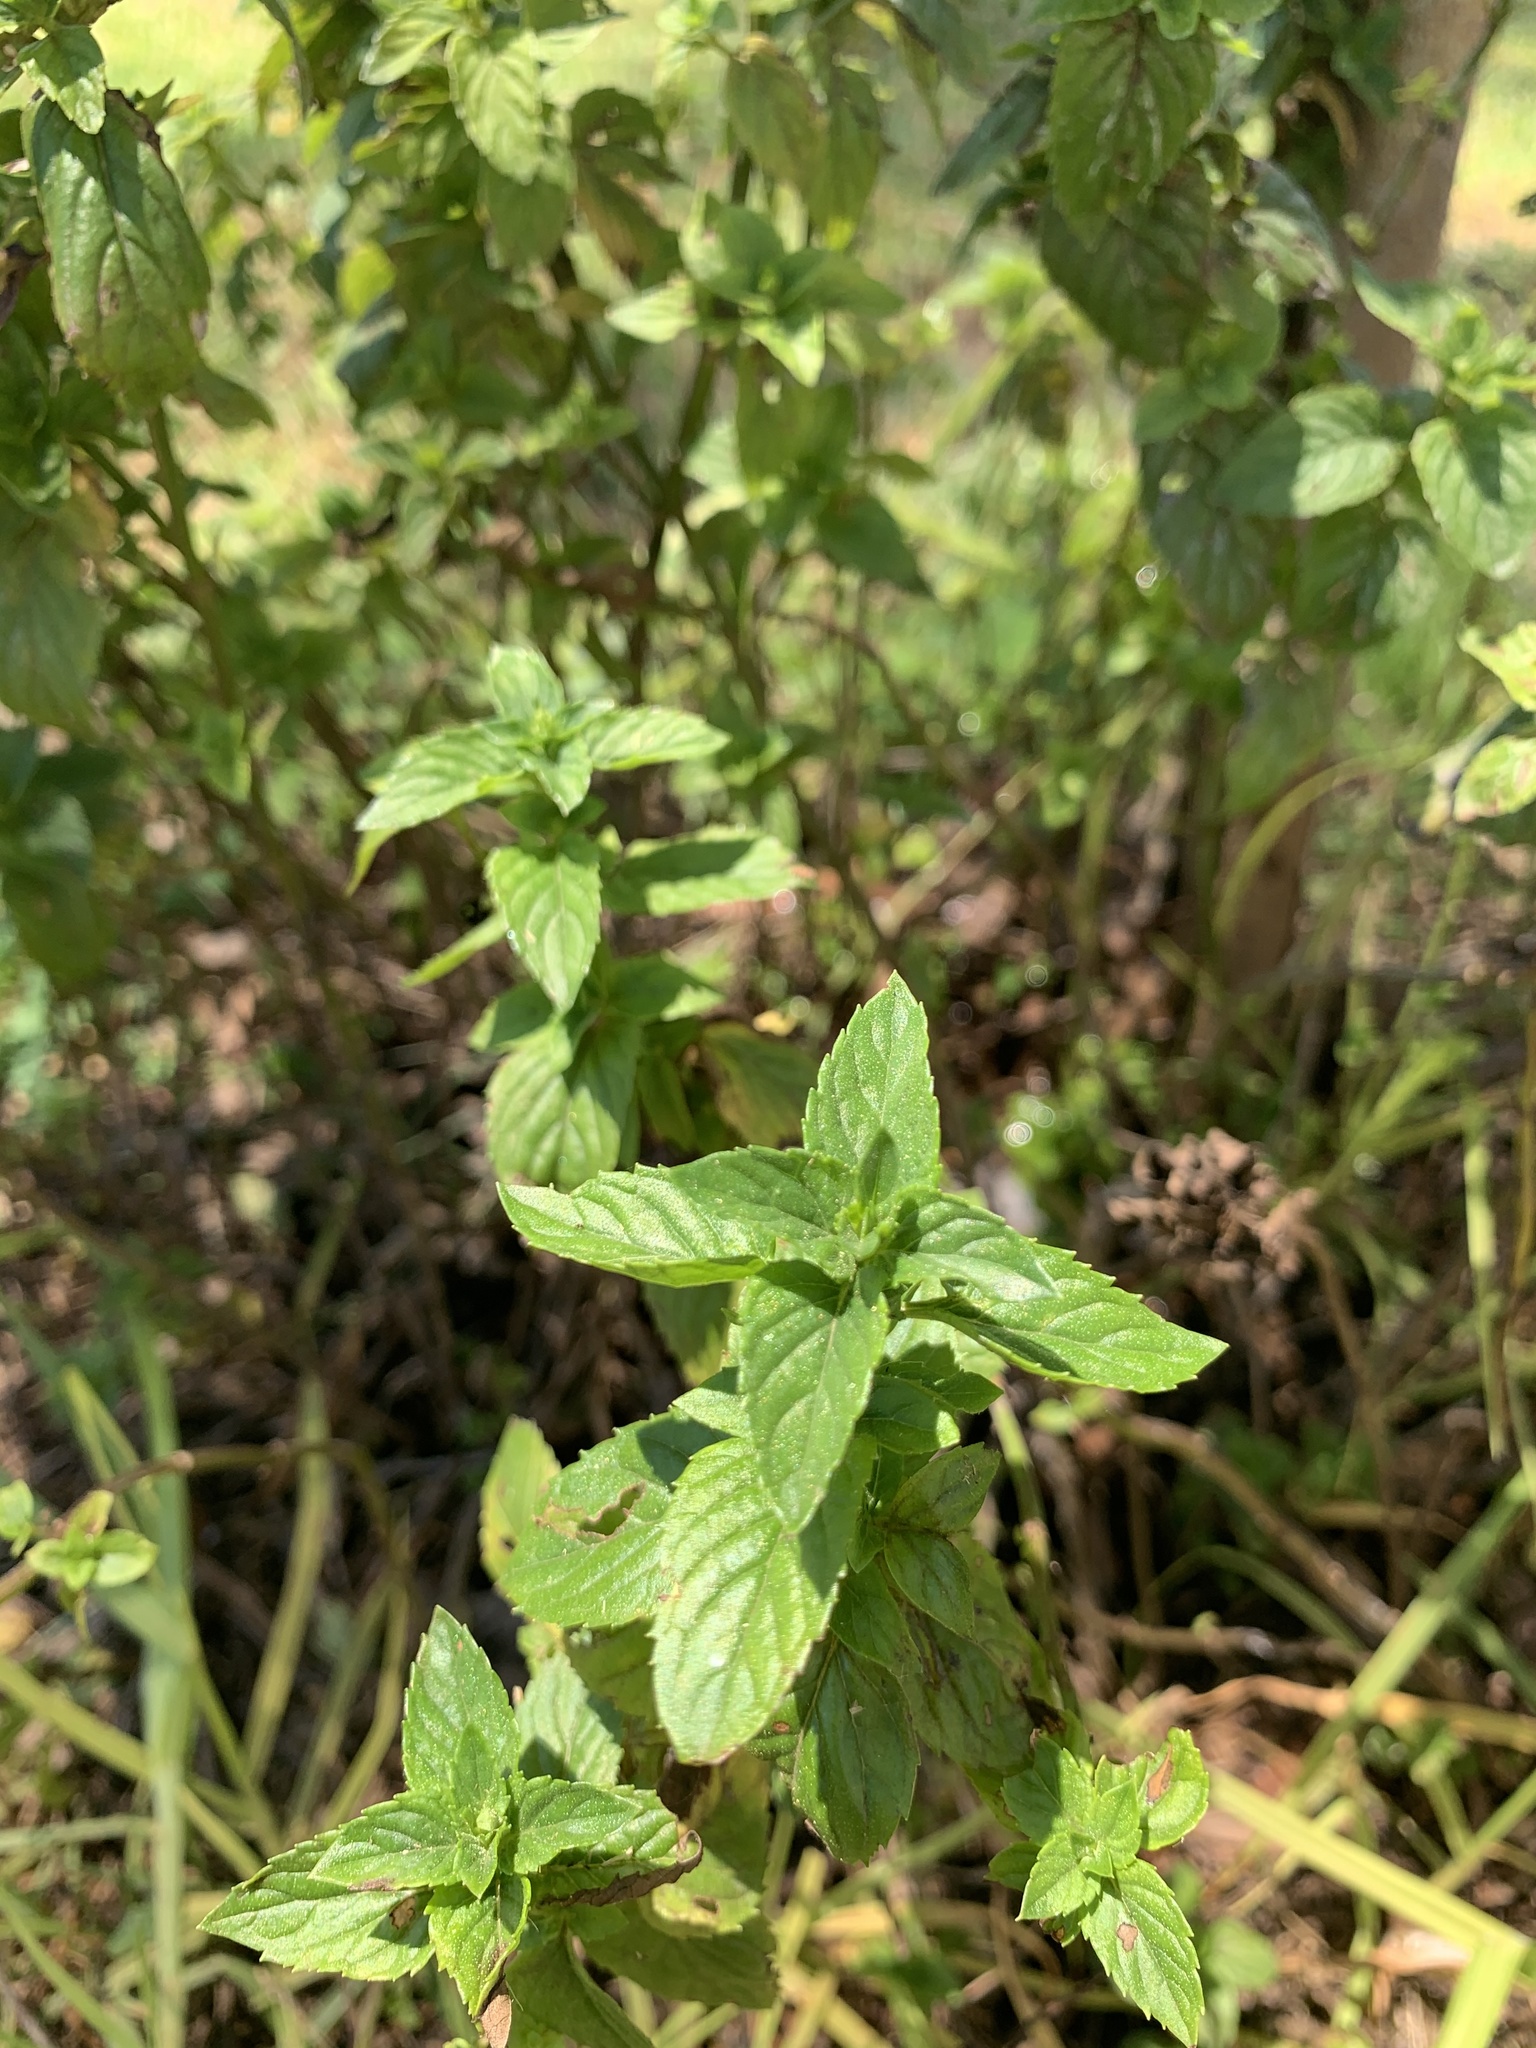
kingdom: Plantae
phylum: Tracheophyta
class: Magnoliopsida
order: Lamiales
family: Lamiaceae
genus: Mentha
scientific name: Mentha aquatica
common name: Water mint
